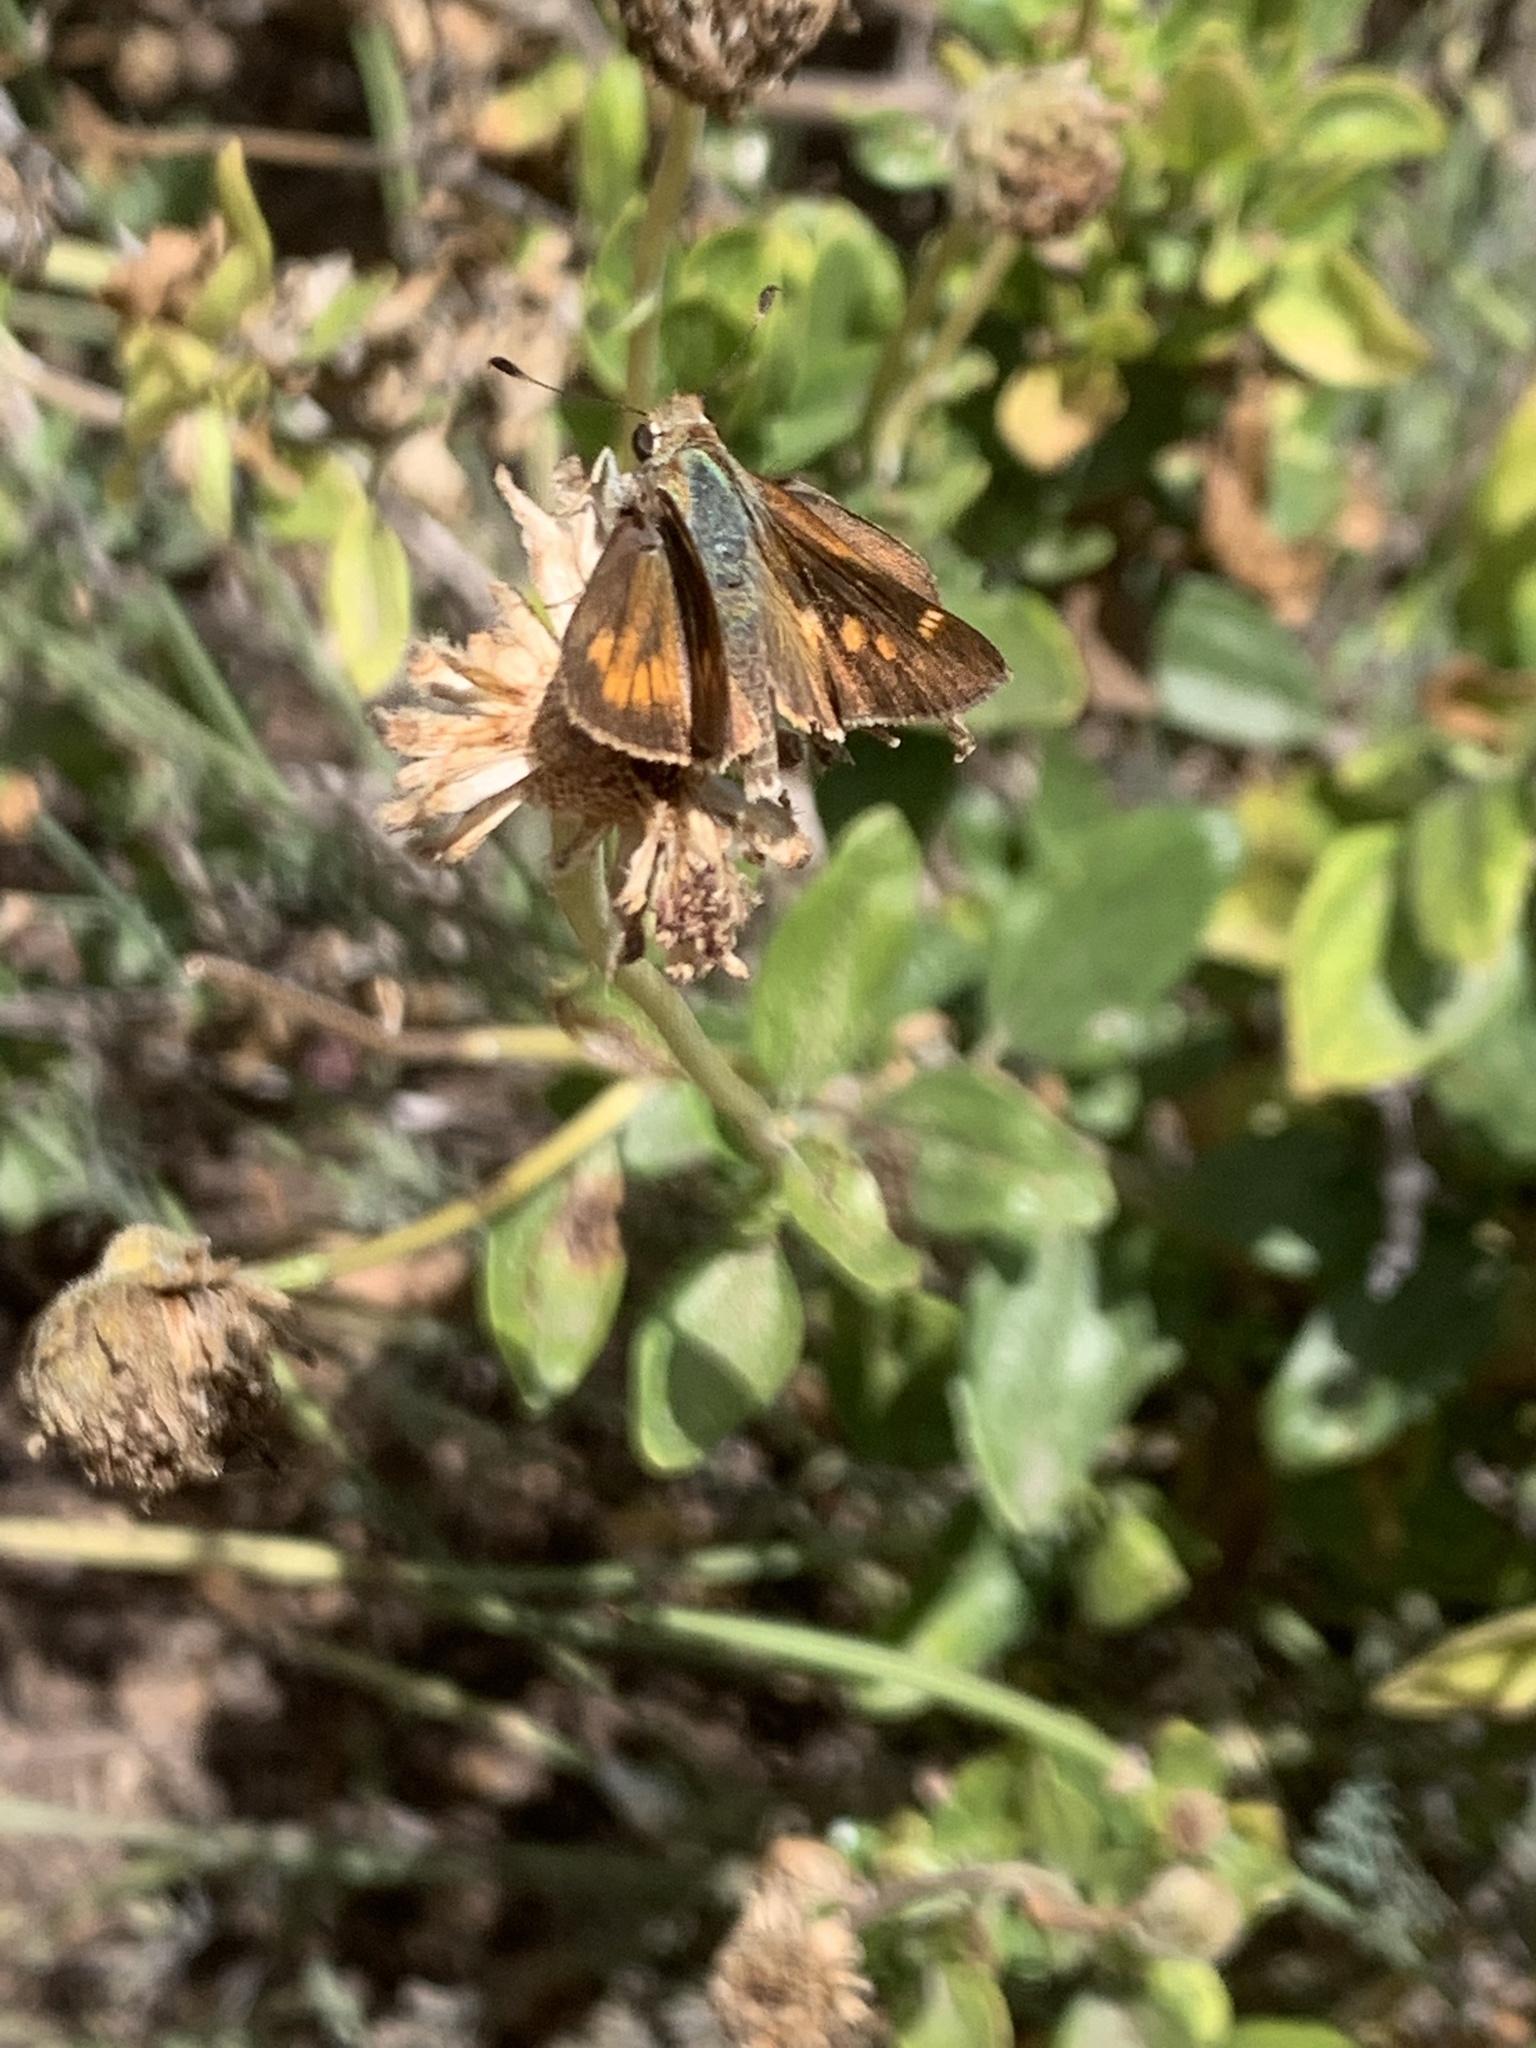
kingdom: Animalia
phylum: Arthropoda
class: Insecta
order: Lepidoptera
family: Hesperiidae
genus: Lon
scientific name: Lon melane
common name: Umber skipper
